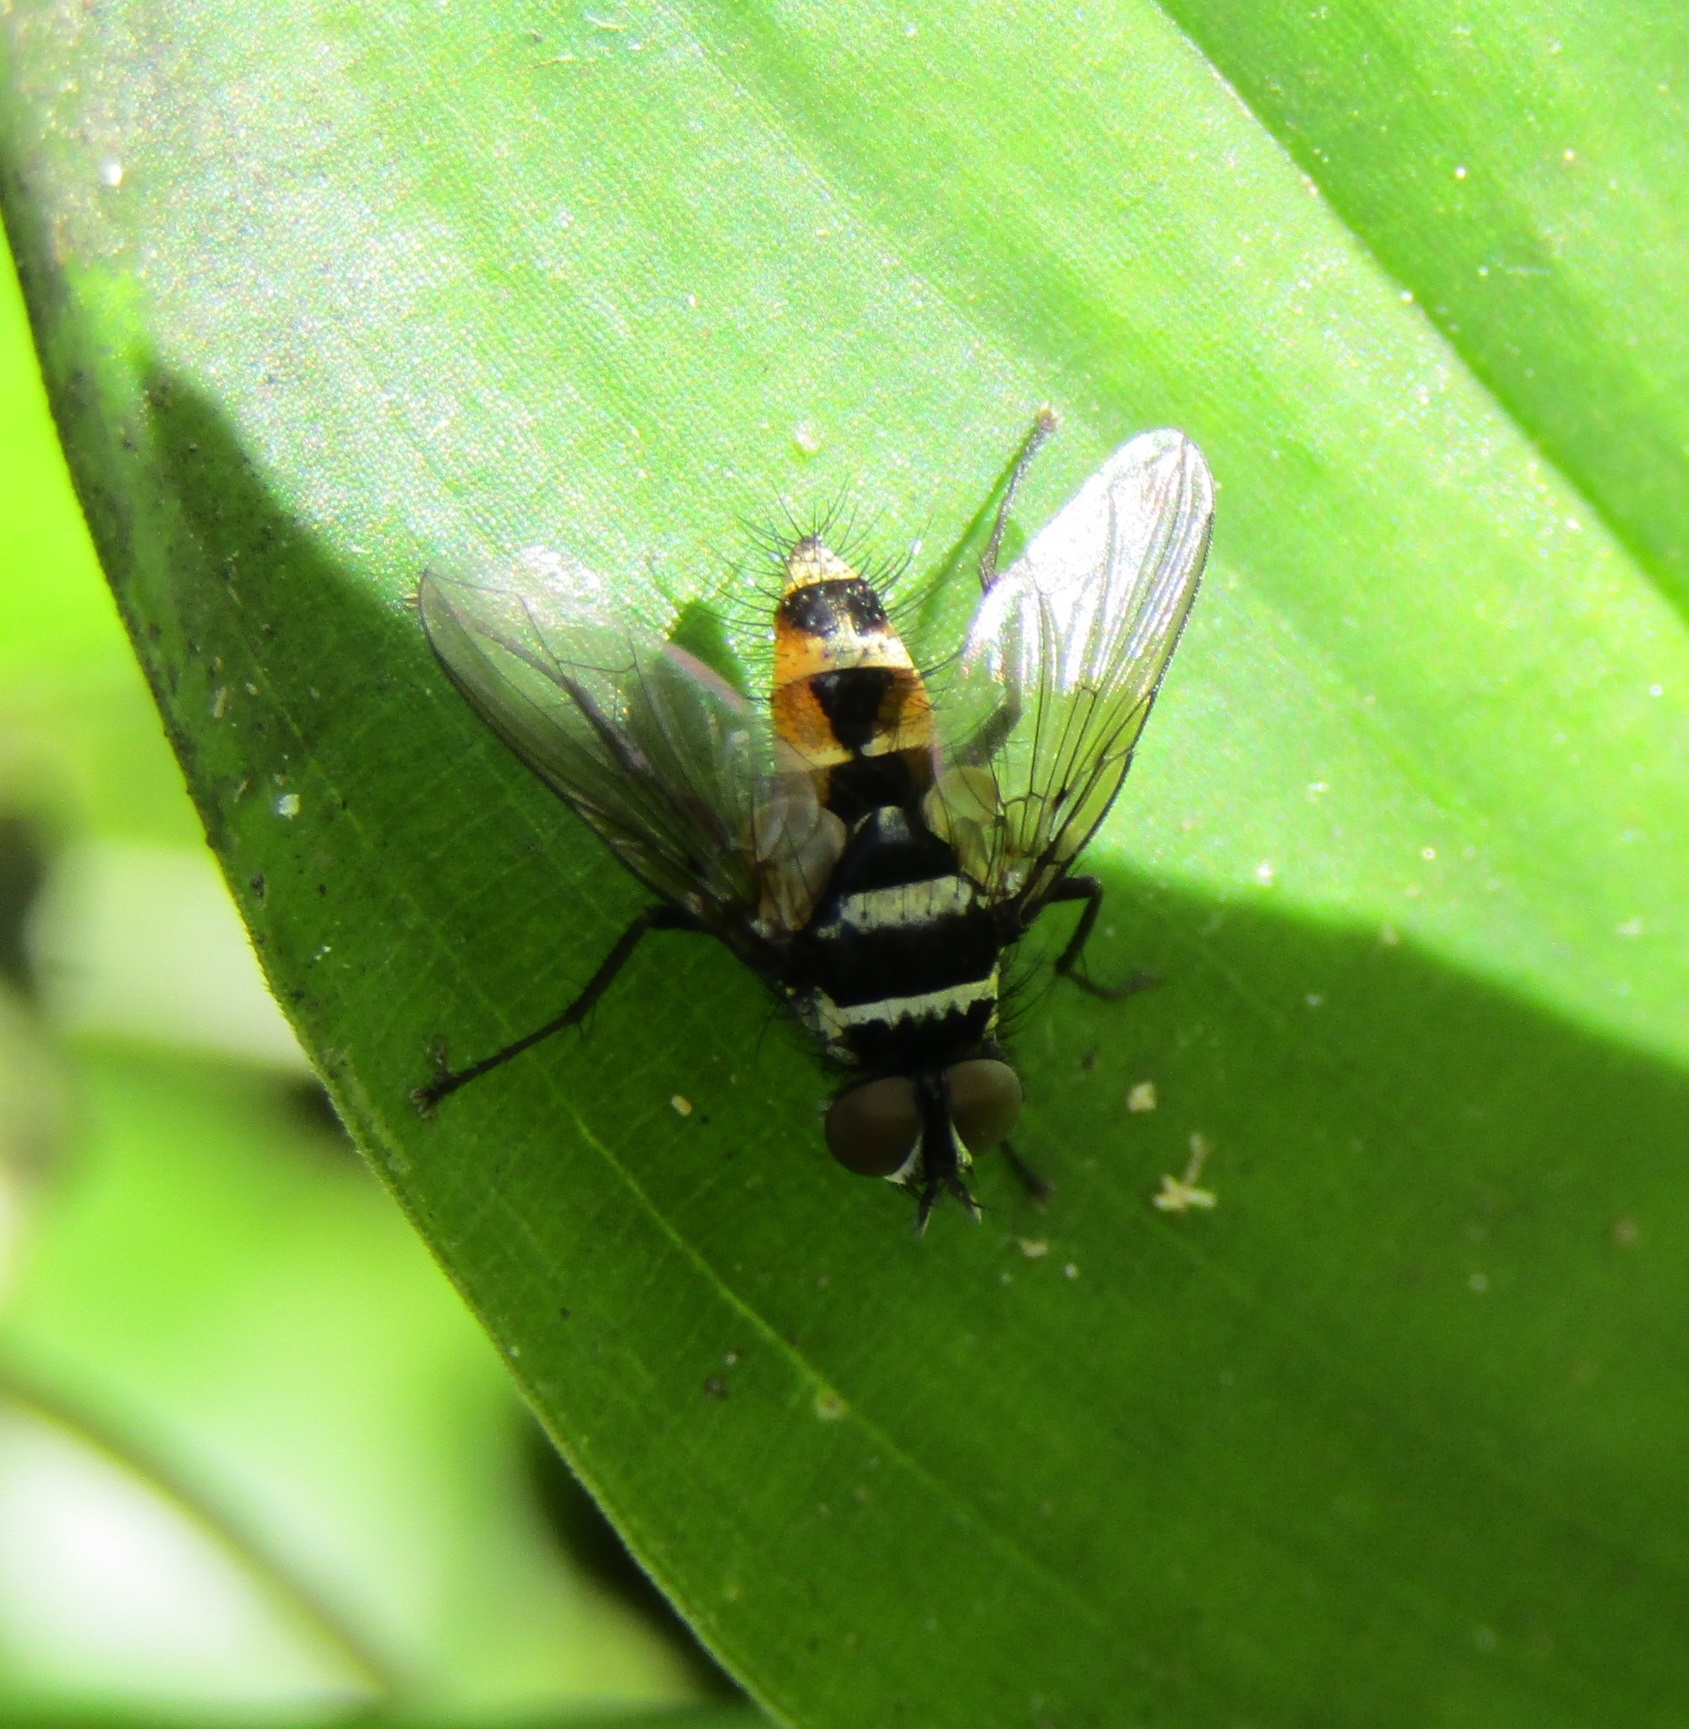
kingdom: Animalia
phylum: Arthropoda
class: Insecta
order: Diptera
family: Tachinidae
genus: Trigonospila
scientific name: Trigonospila brevifacies
